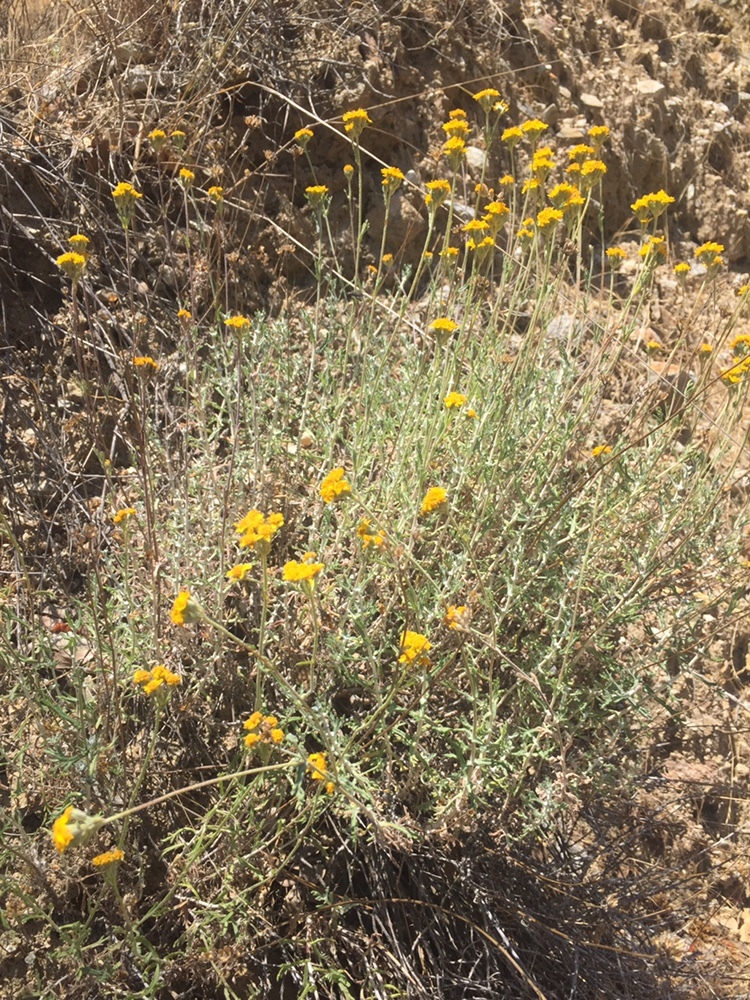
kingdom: Plantae
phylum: Tracheophyta
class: Magnoliopsida
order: Asterales
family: Asteraceae
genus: Eriophyllum
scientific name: Eriophyllum confertiflorum
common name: Golden-yarrow
